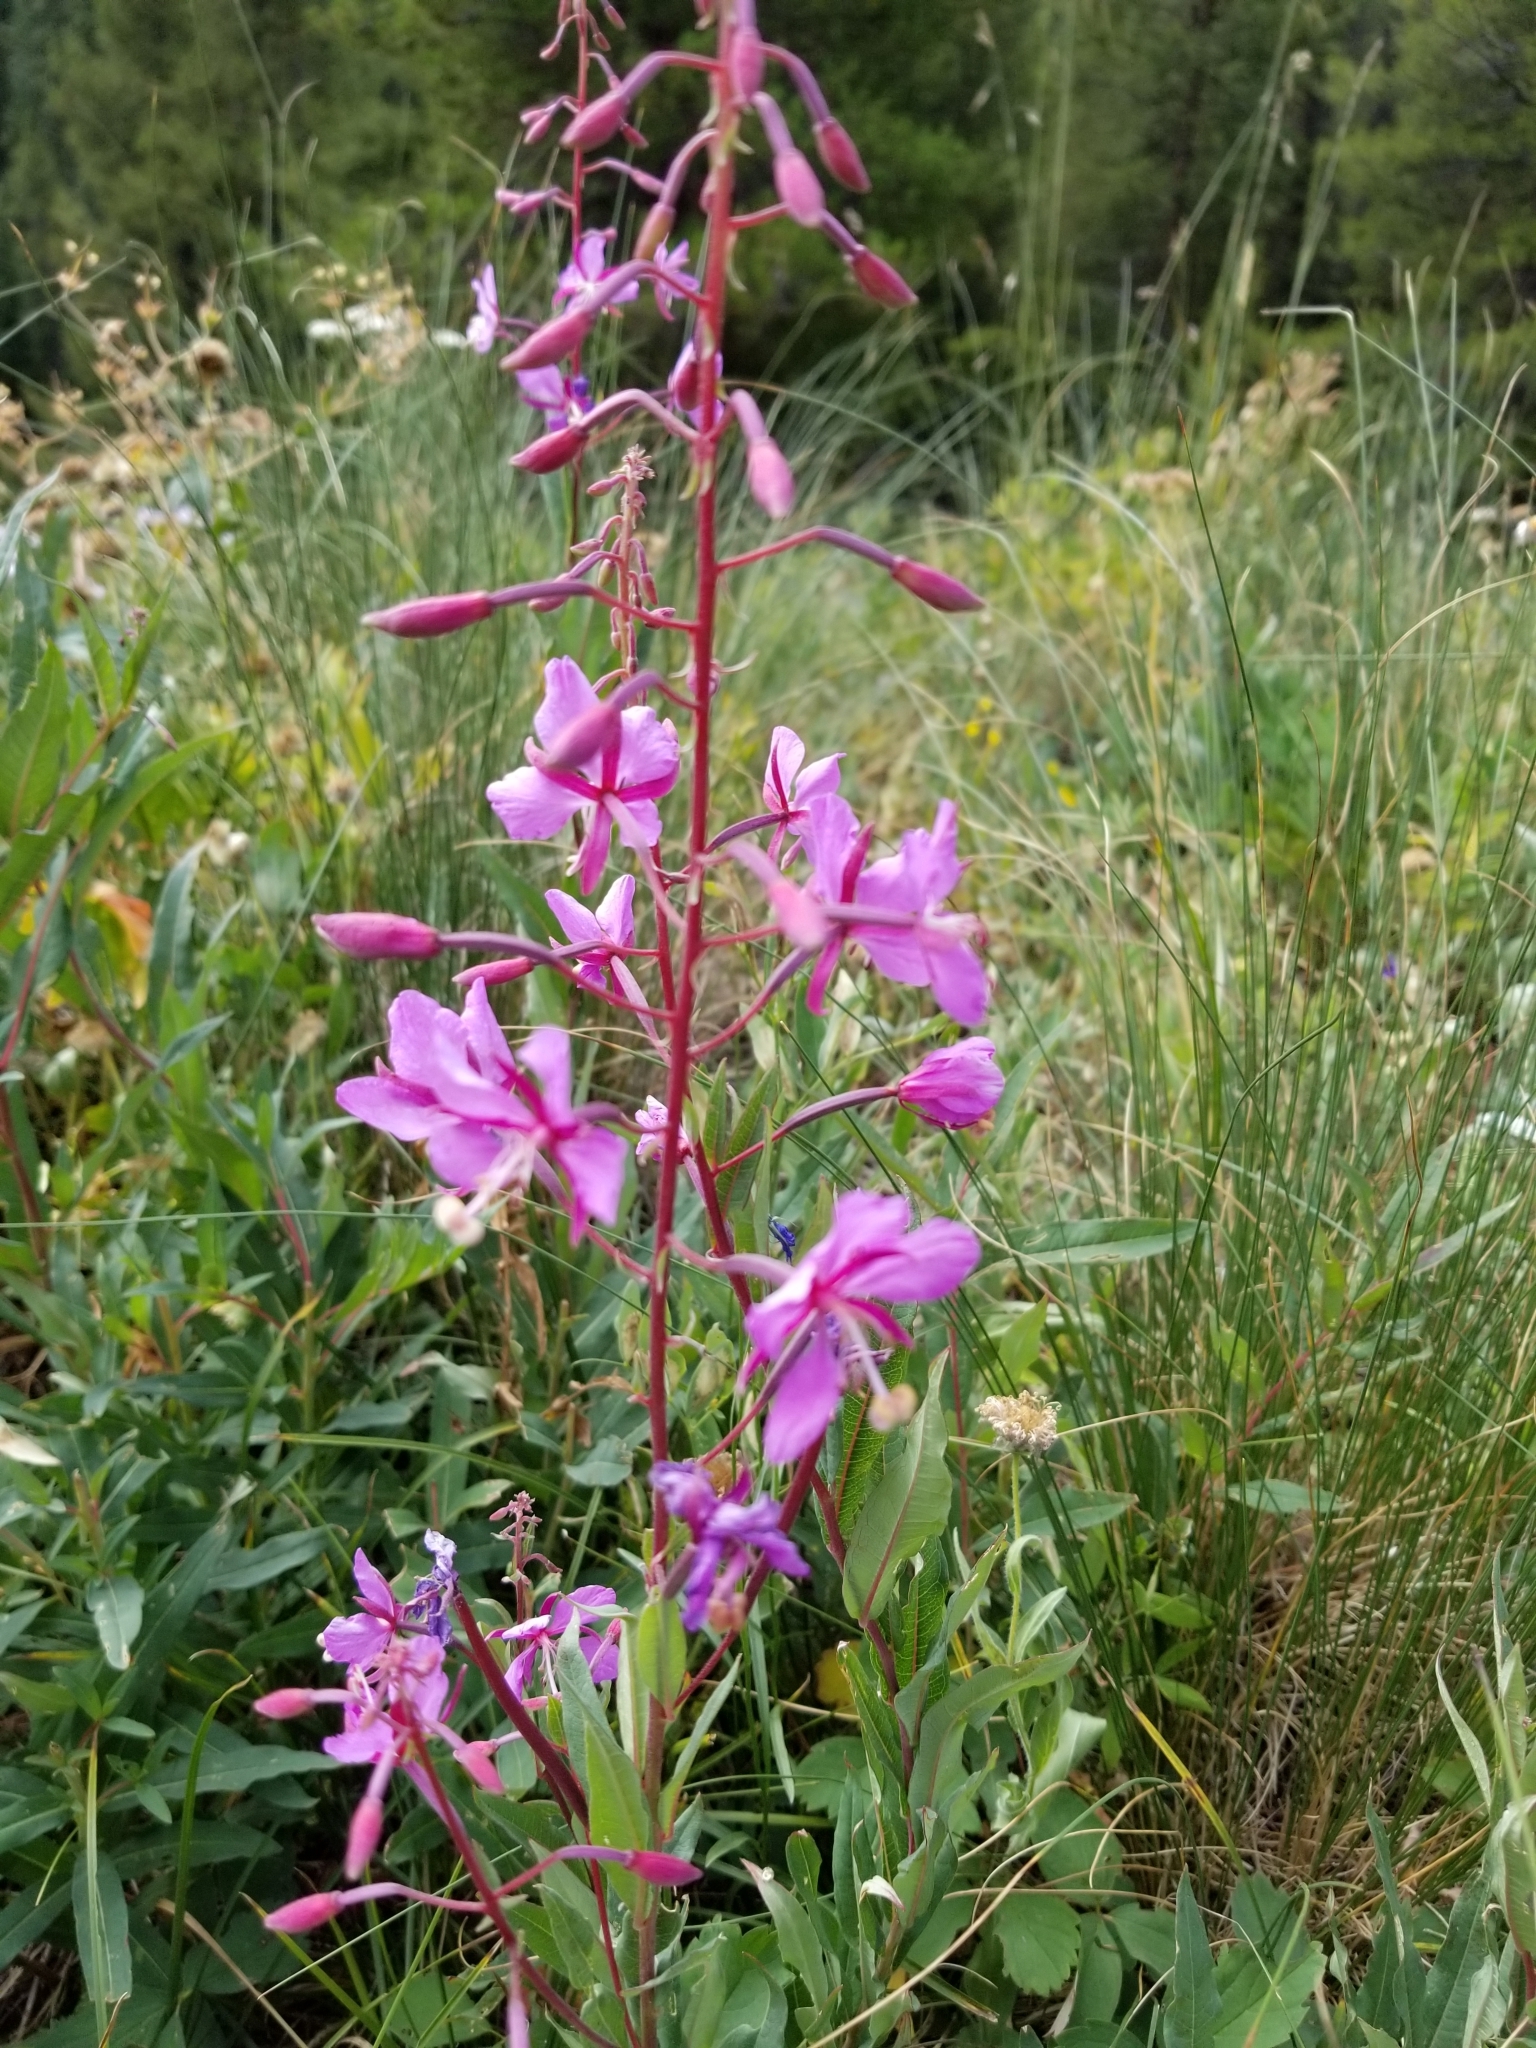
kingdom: Plantae
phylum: Tracheophyta
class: Magnoliopsida
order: Myrtales
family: Onagraceae
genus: Chamaenerion
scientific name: Chamaenerion angustifolium
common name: Fireweed
